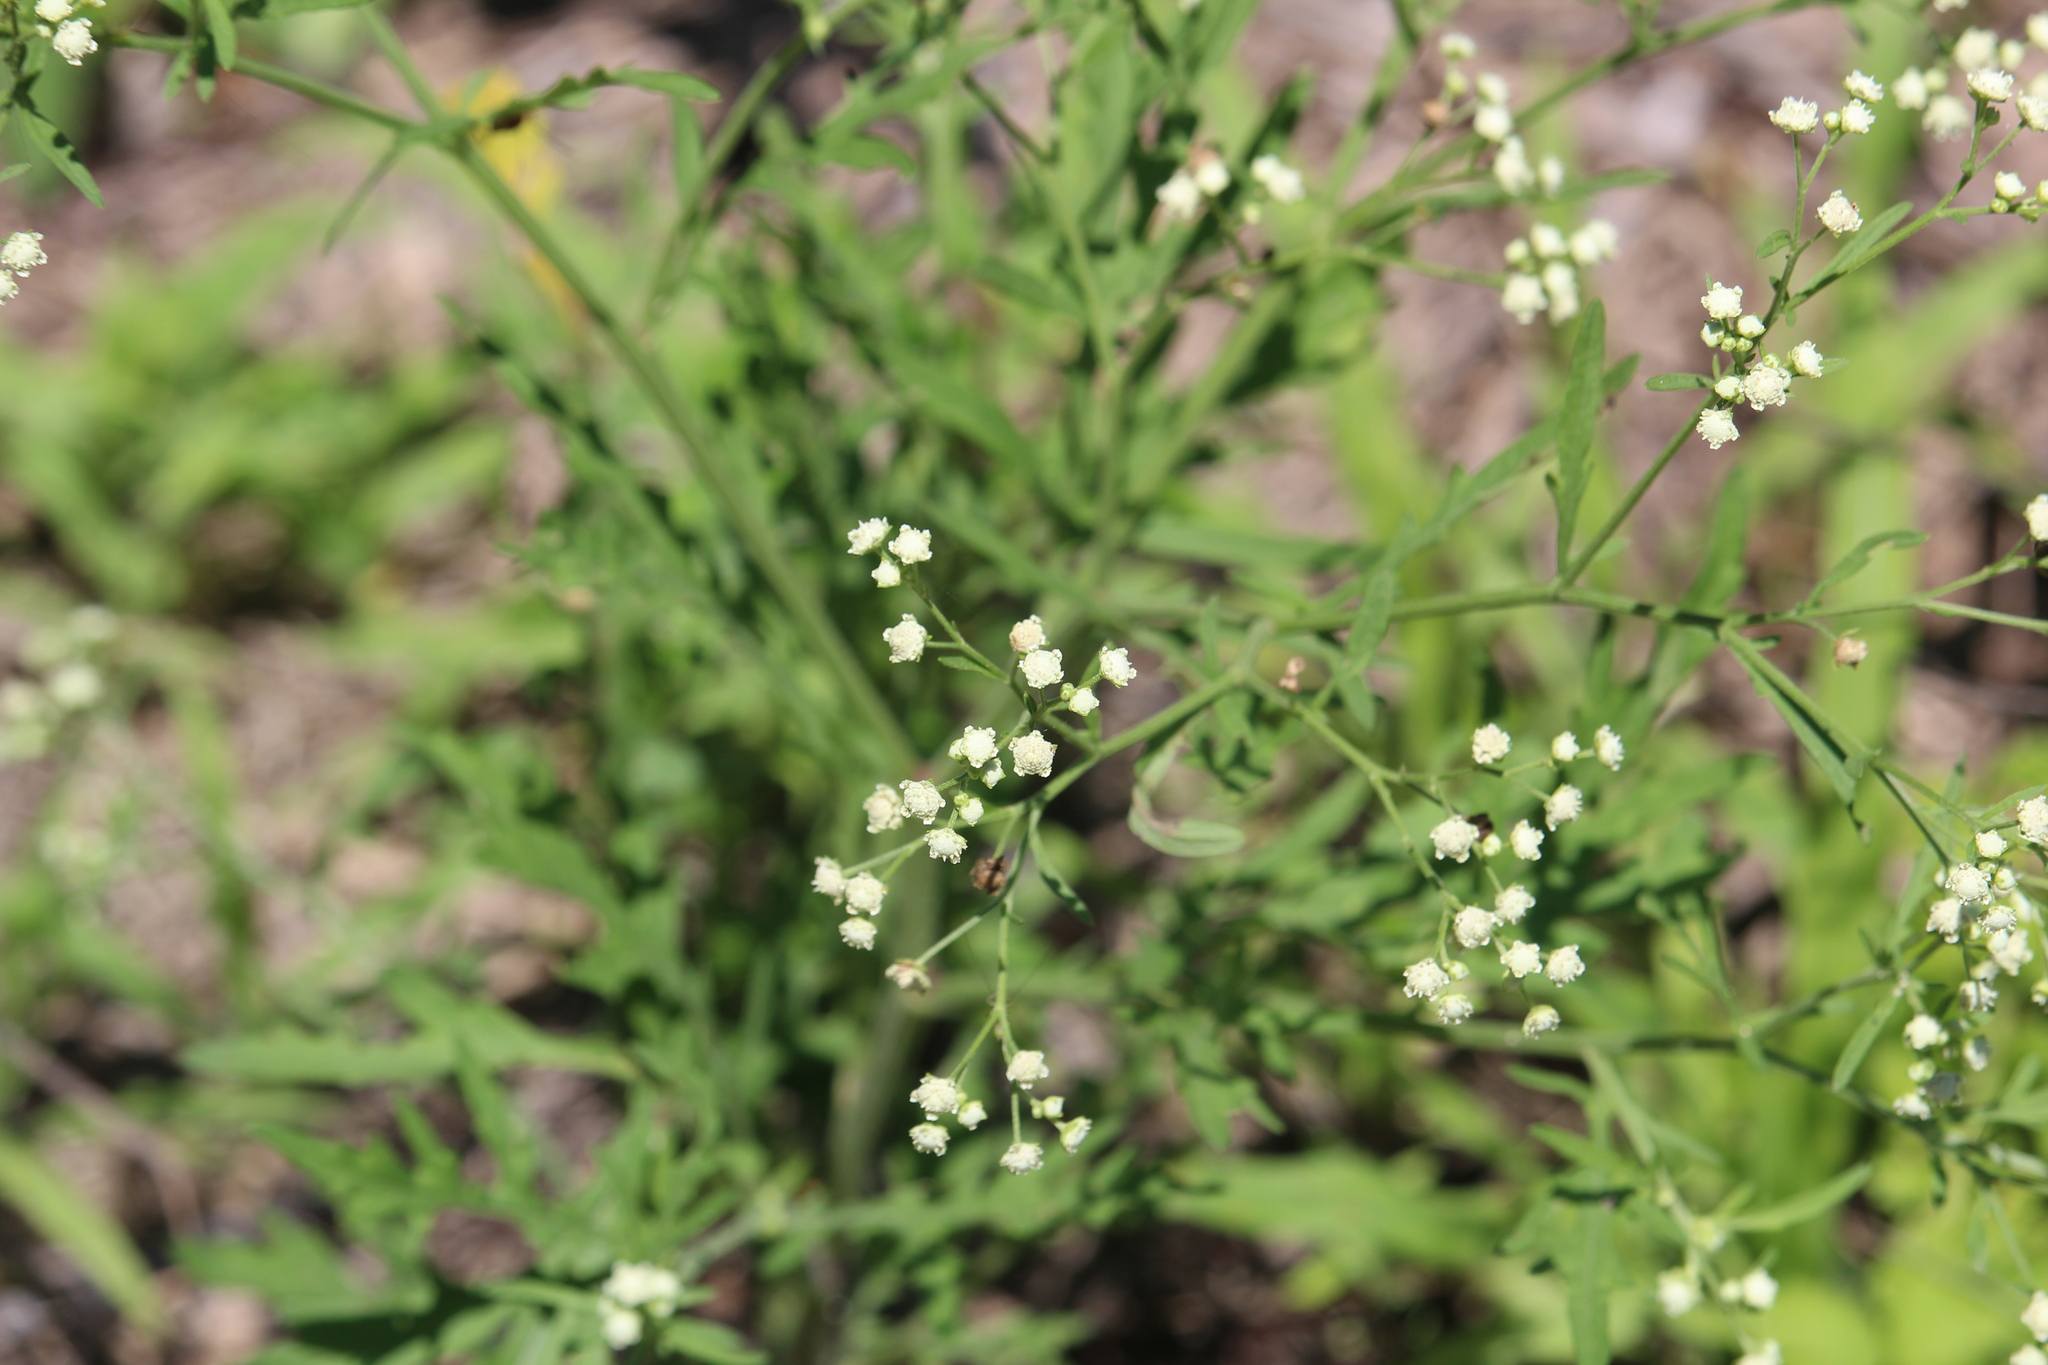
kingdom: Plantae
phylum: Tracheophyta
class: Magnoliopsida
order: Asterales
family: Asteraceae
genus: Parthenium
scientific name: Parthenium hysterophorus
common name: Santa maria feverfew
